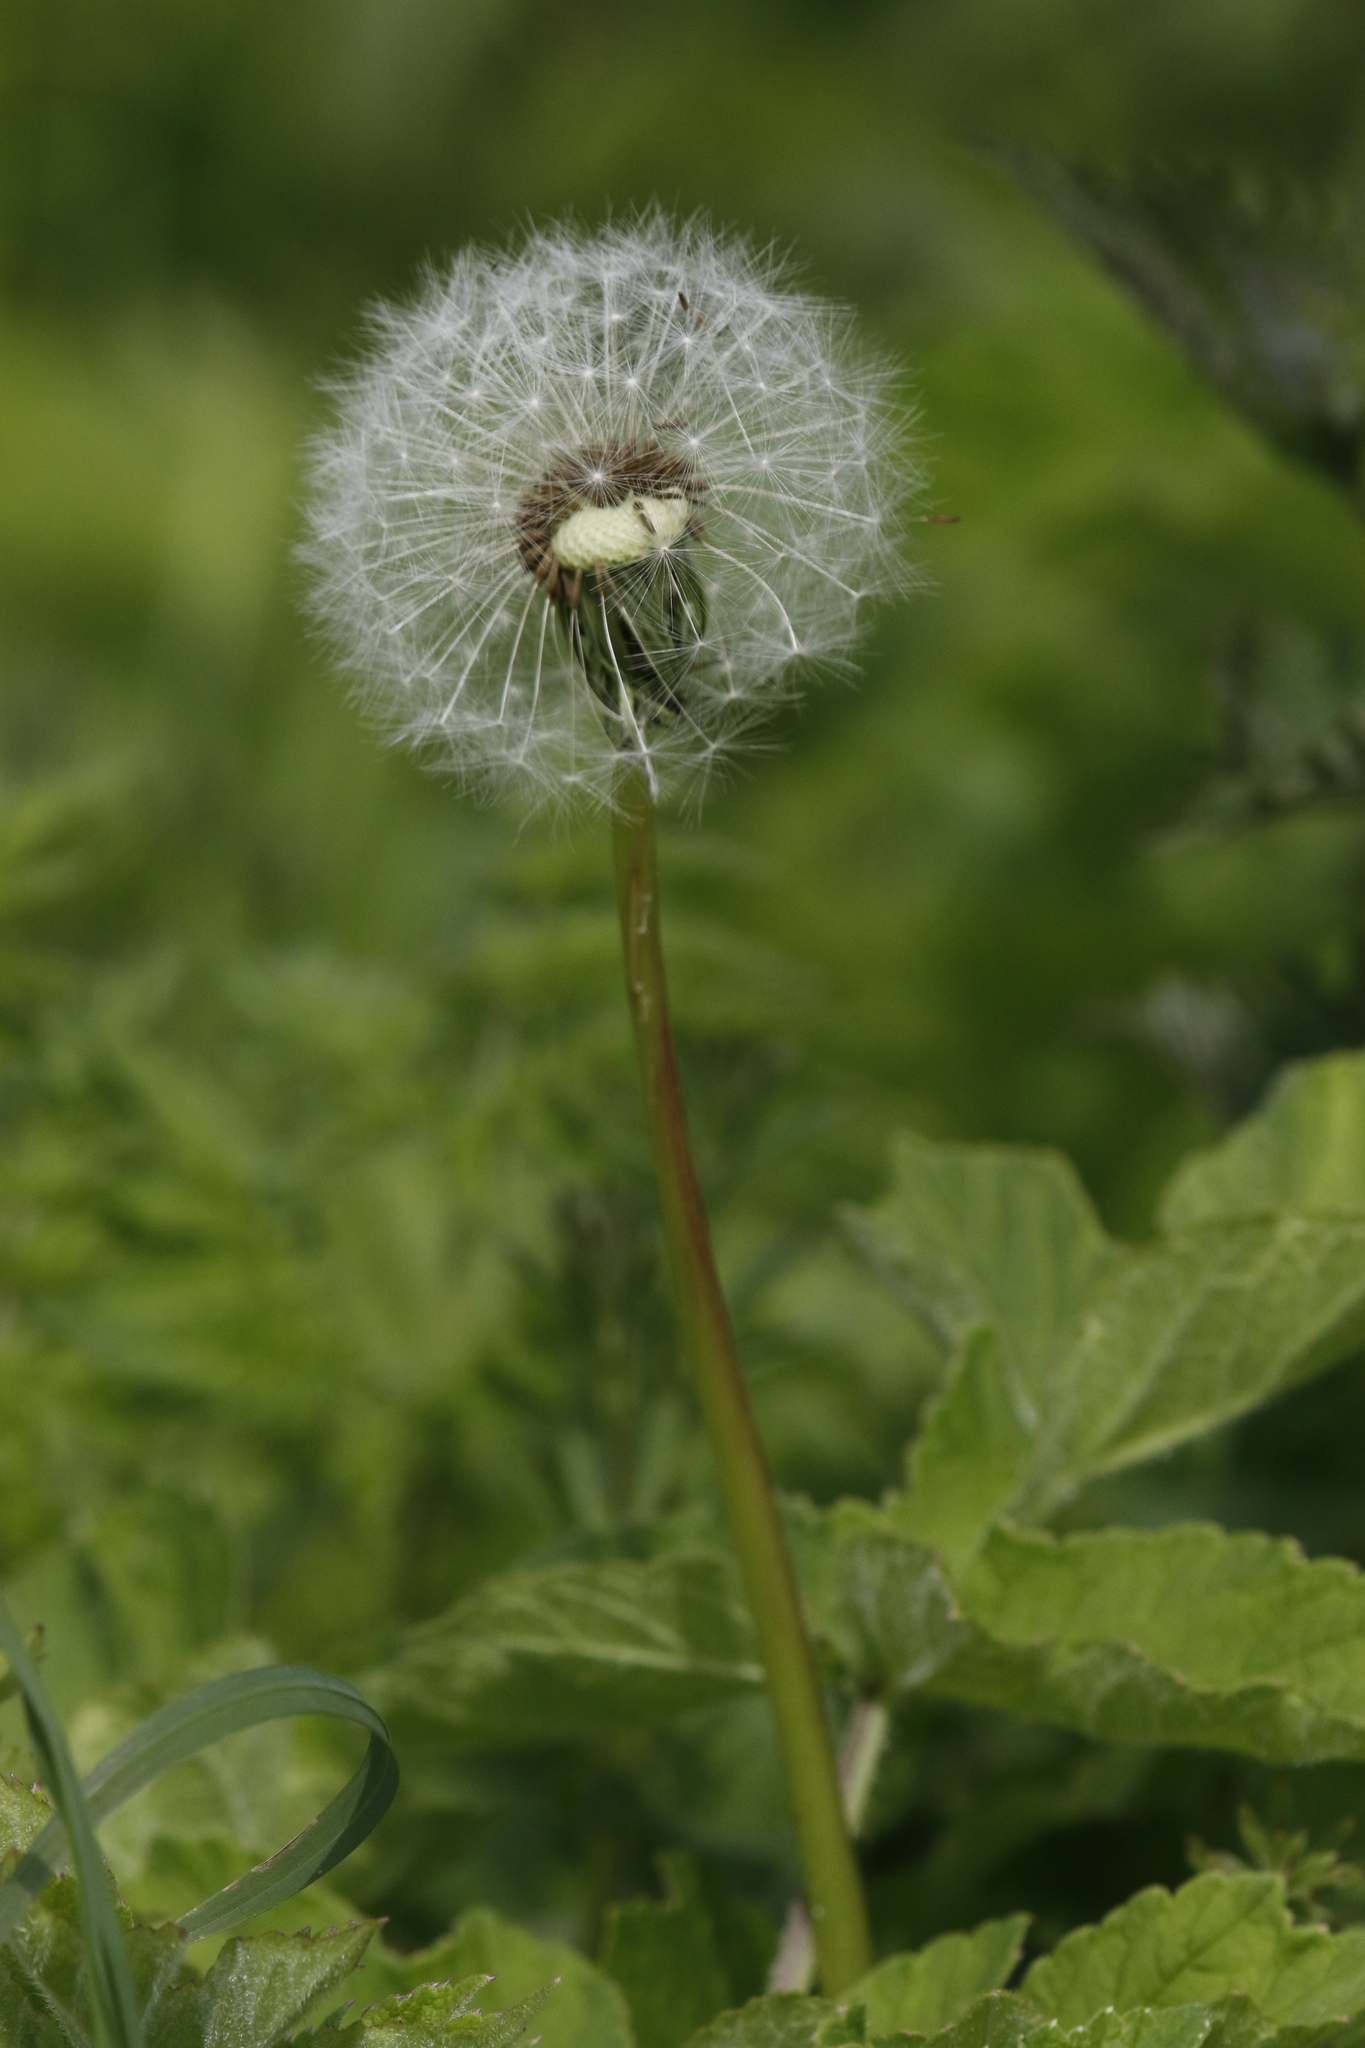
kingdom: Plantae
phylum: Tracheophyta
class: Magnoliopsida
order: Asterales
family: Asteraceae
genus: Taraxacum
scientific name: Taraxacum officinale
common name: Common dandelion
